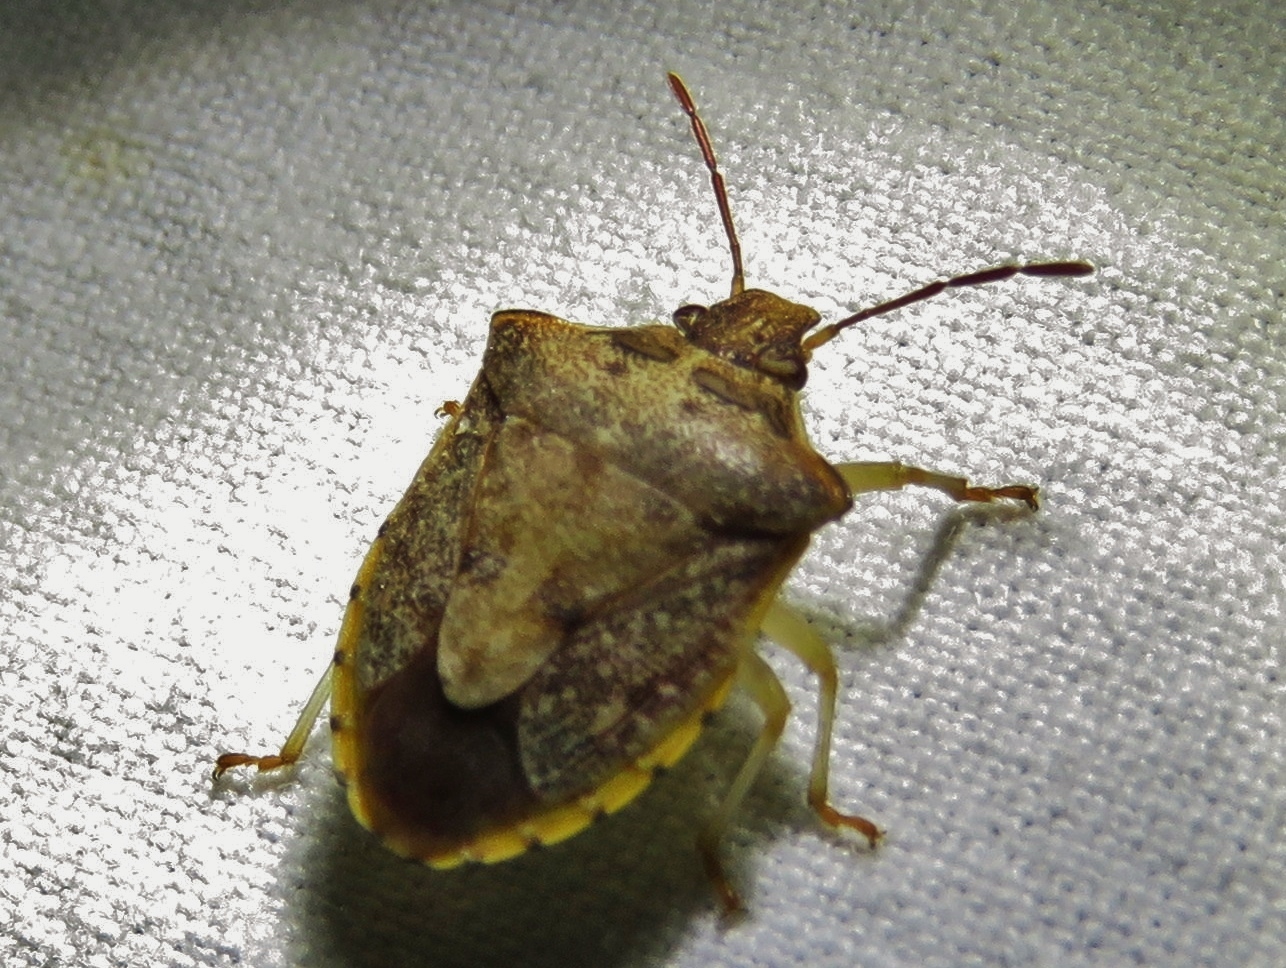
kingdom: Animalia
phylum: Arthropoda
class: Insecta
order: Hemiptera
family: Pentatomidae
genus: Dendrocoris
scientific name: Dendrocoris humeralis
